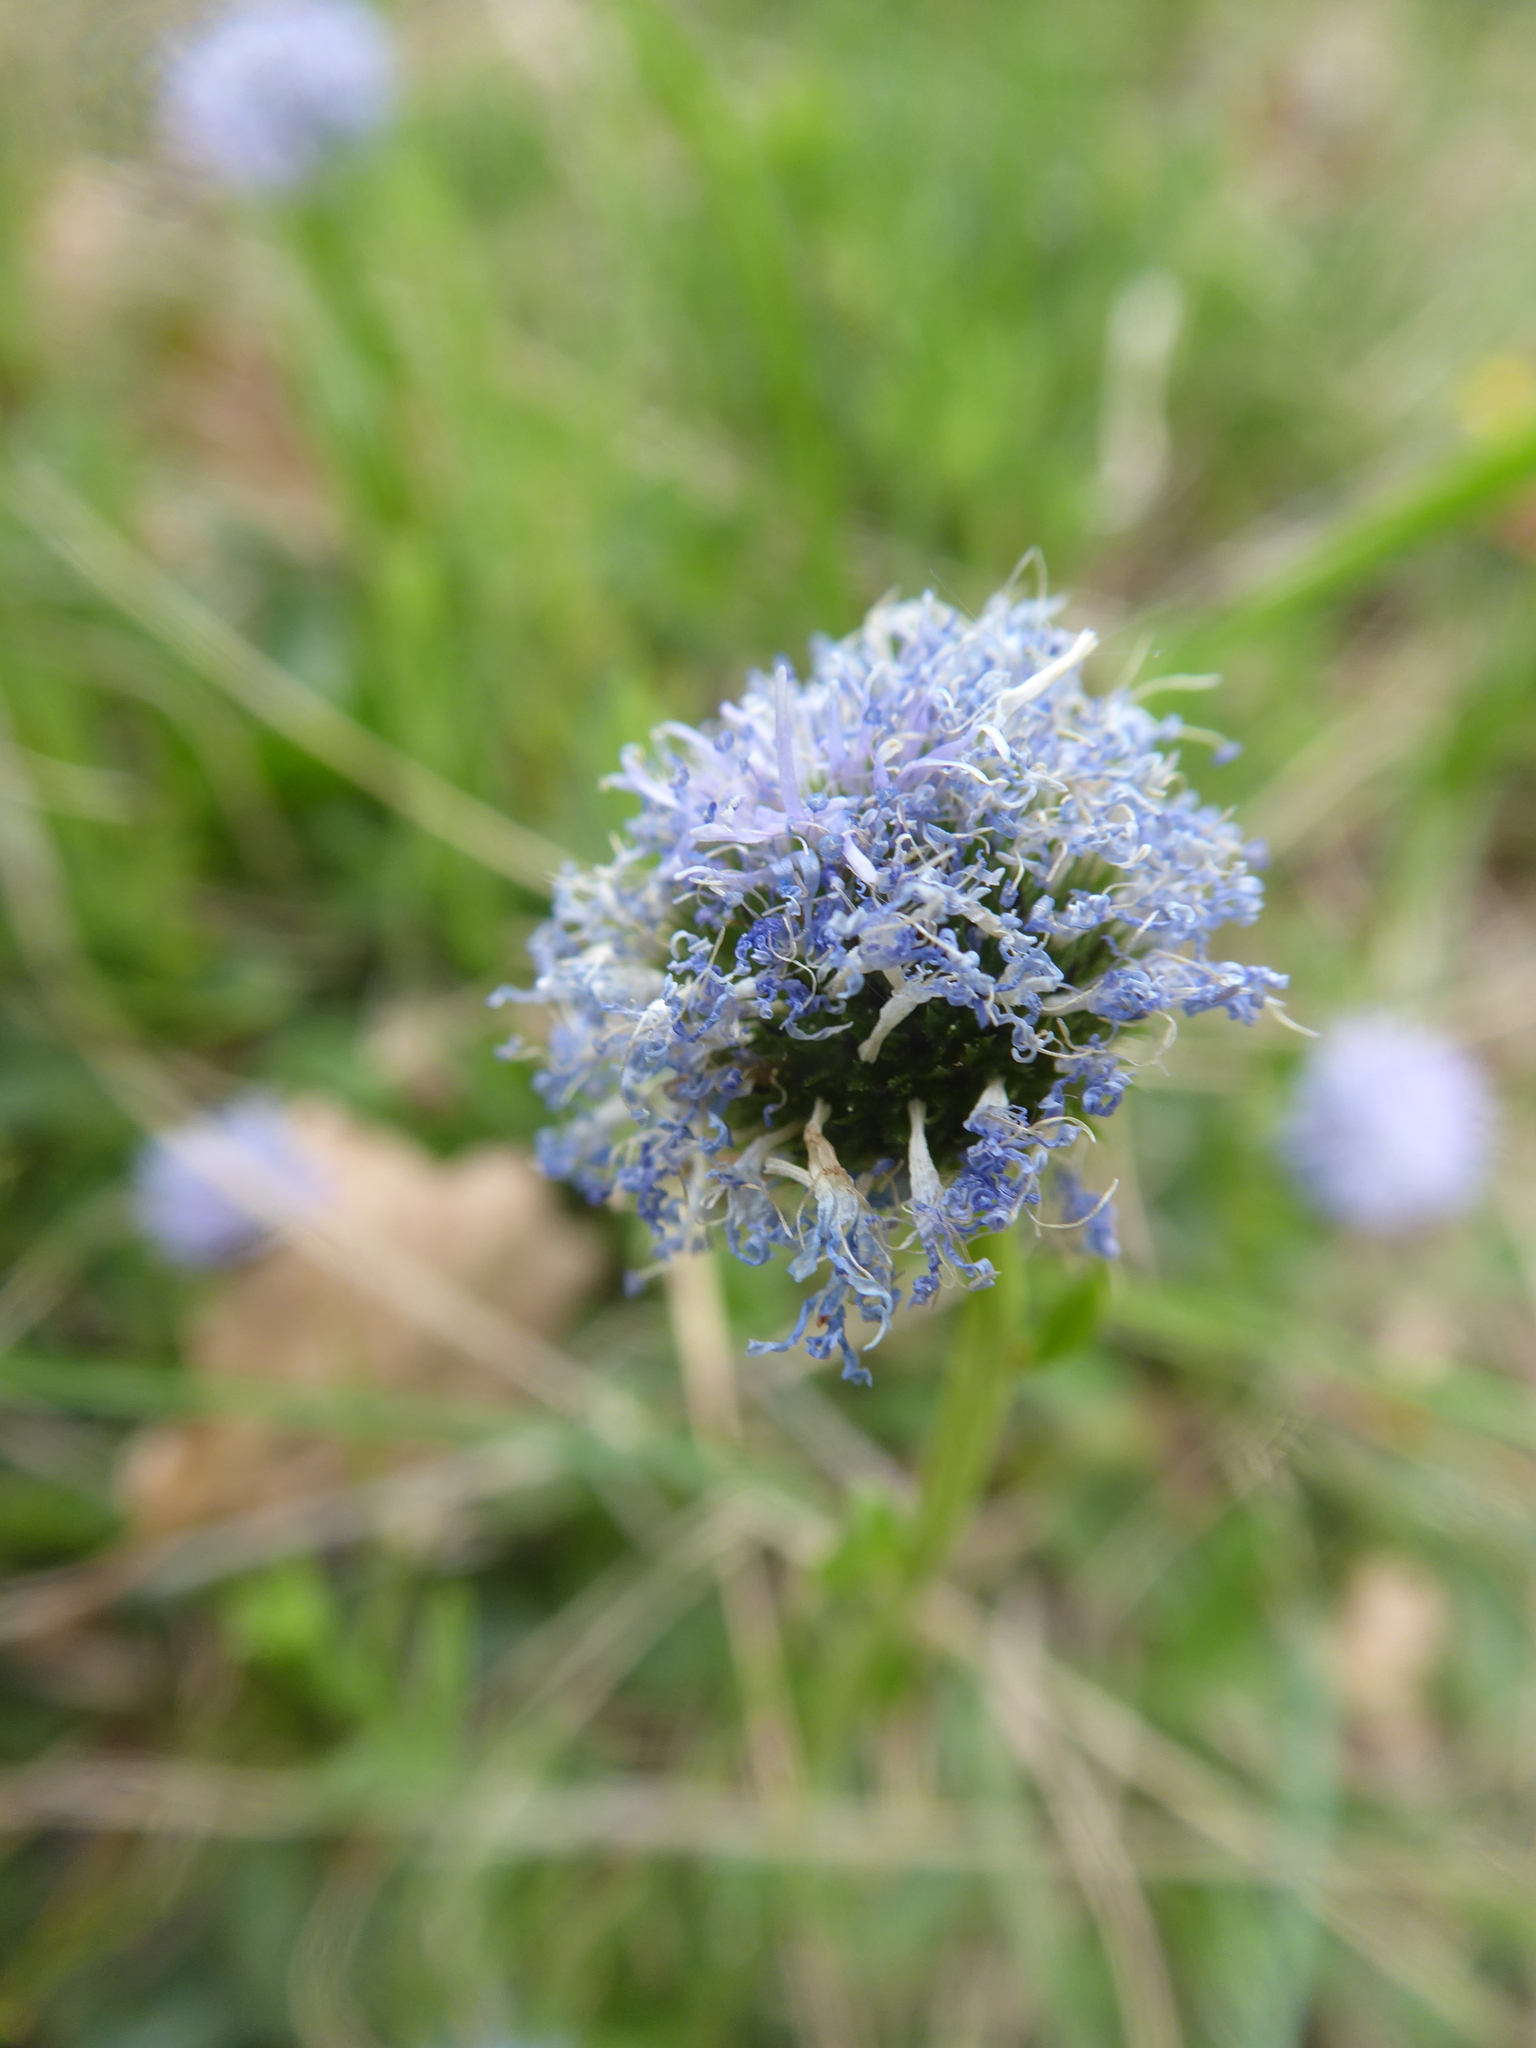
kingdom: Plantae
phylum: Tracheophyta
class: Magnoliopsida
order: Lamiales
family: Plantaginaceae
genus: Globularia
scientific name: Globularia bisnagarica
